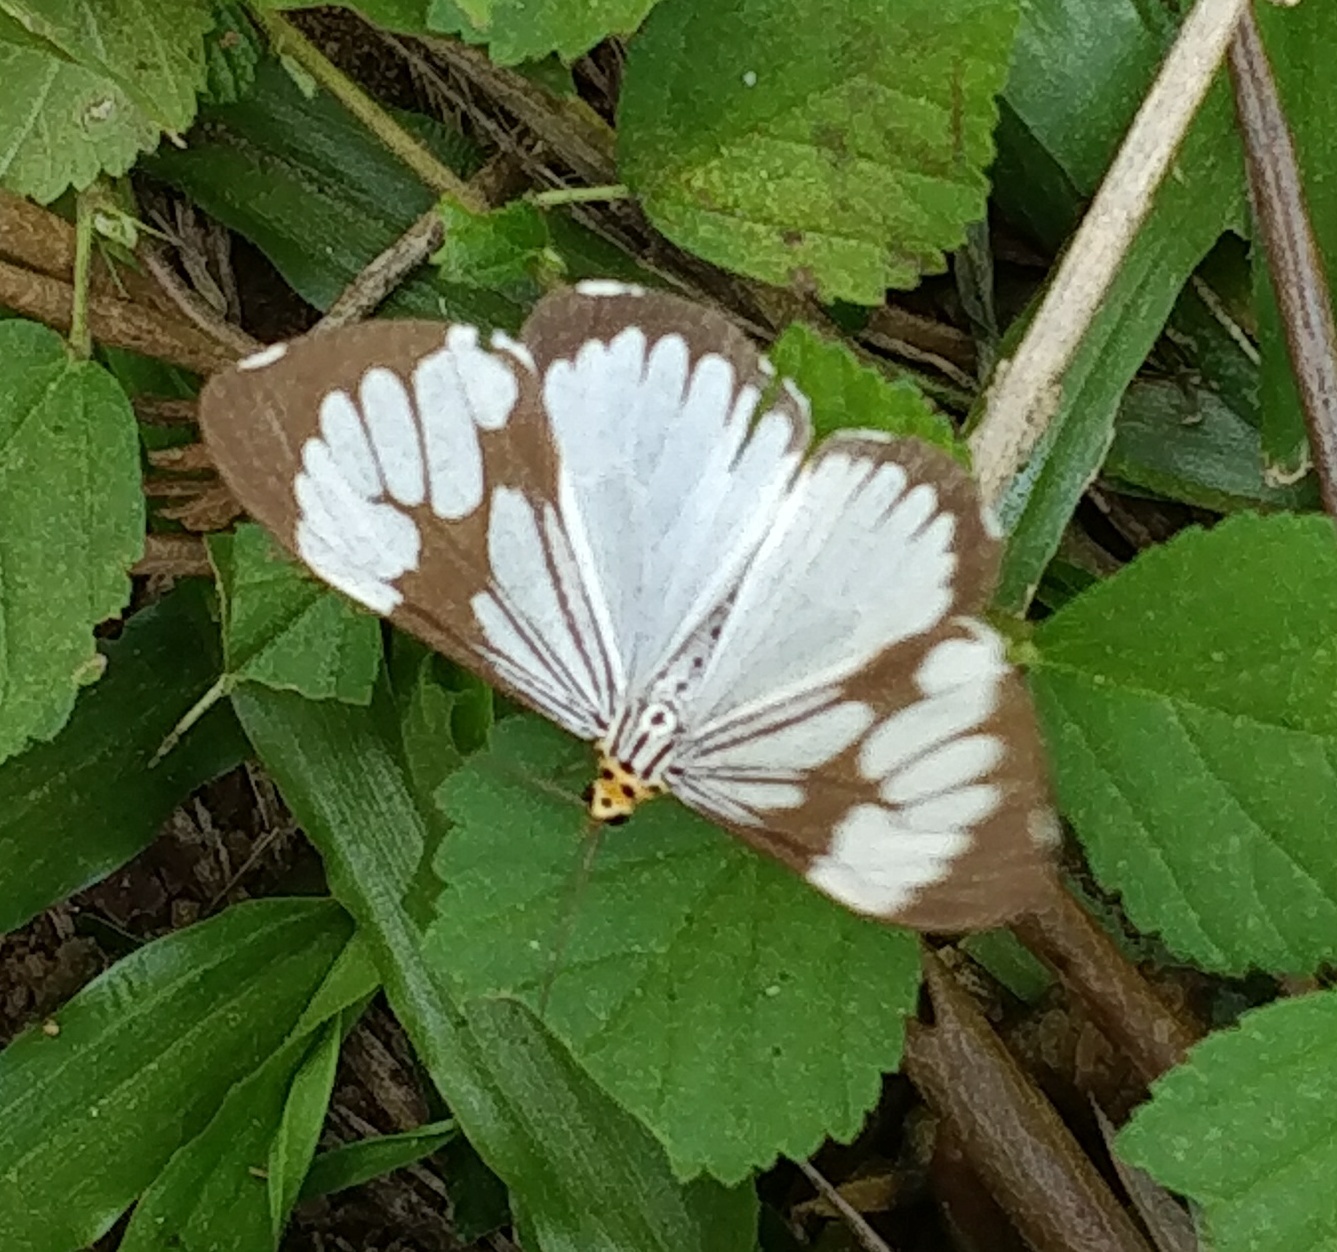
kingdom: Animalia
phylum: Arthropoda
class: Insecta
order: Lepidoptera
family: Erebidae
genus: Nyctemera
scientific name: Nyctemera coleta
